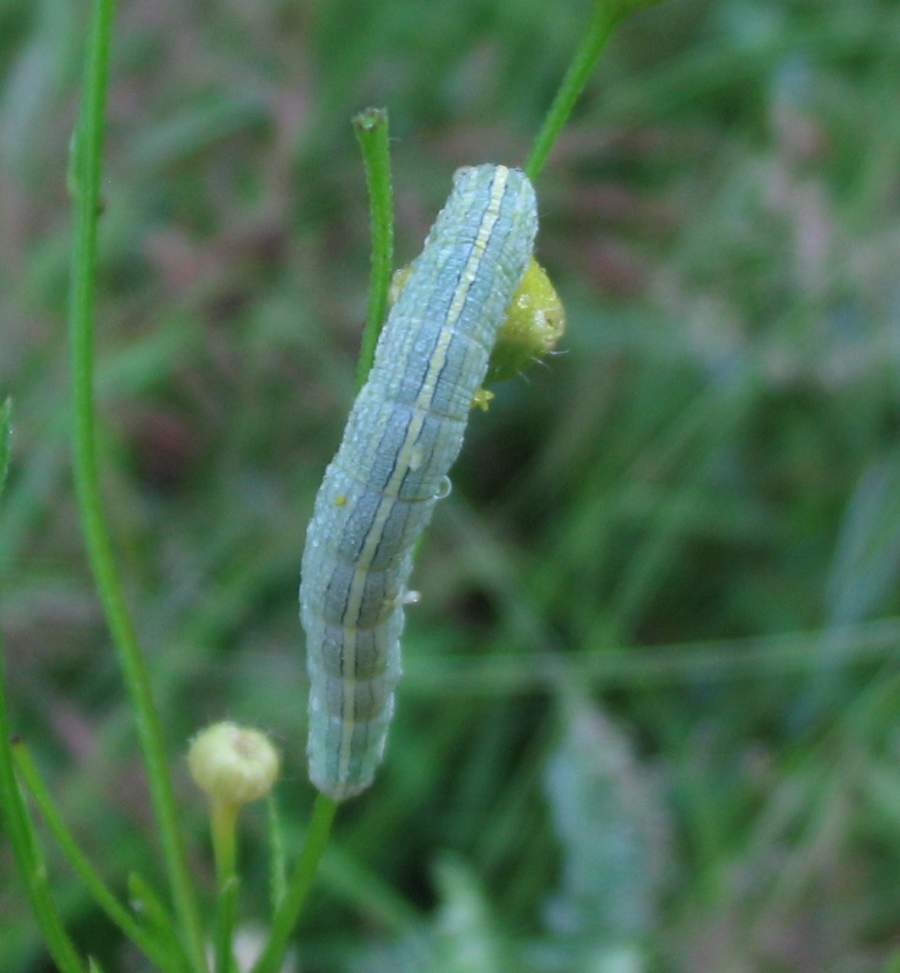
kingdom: Animalia
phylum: Arthropoda
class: Insecta
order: Lepidoptera
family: Noctuidae
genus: Cucullia
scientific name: Cucullia florea
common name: Gray hooded owlet
